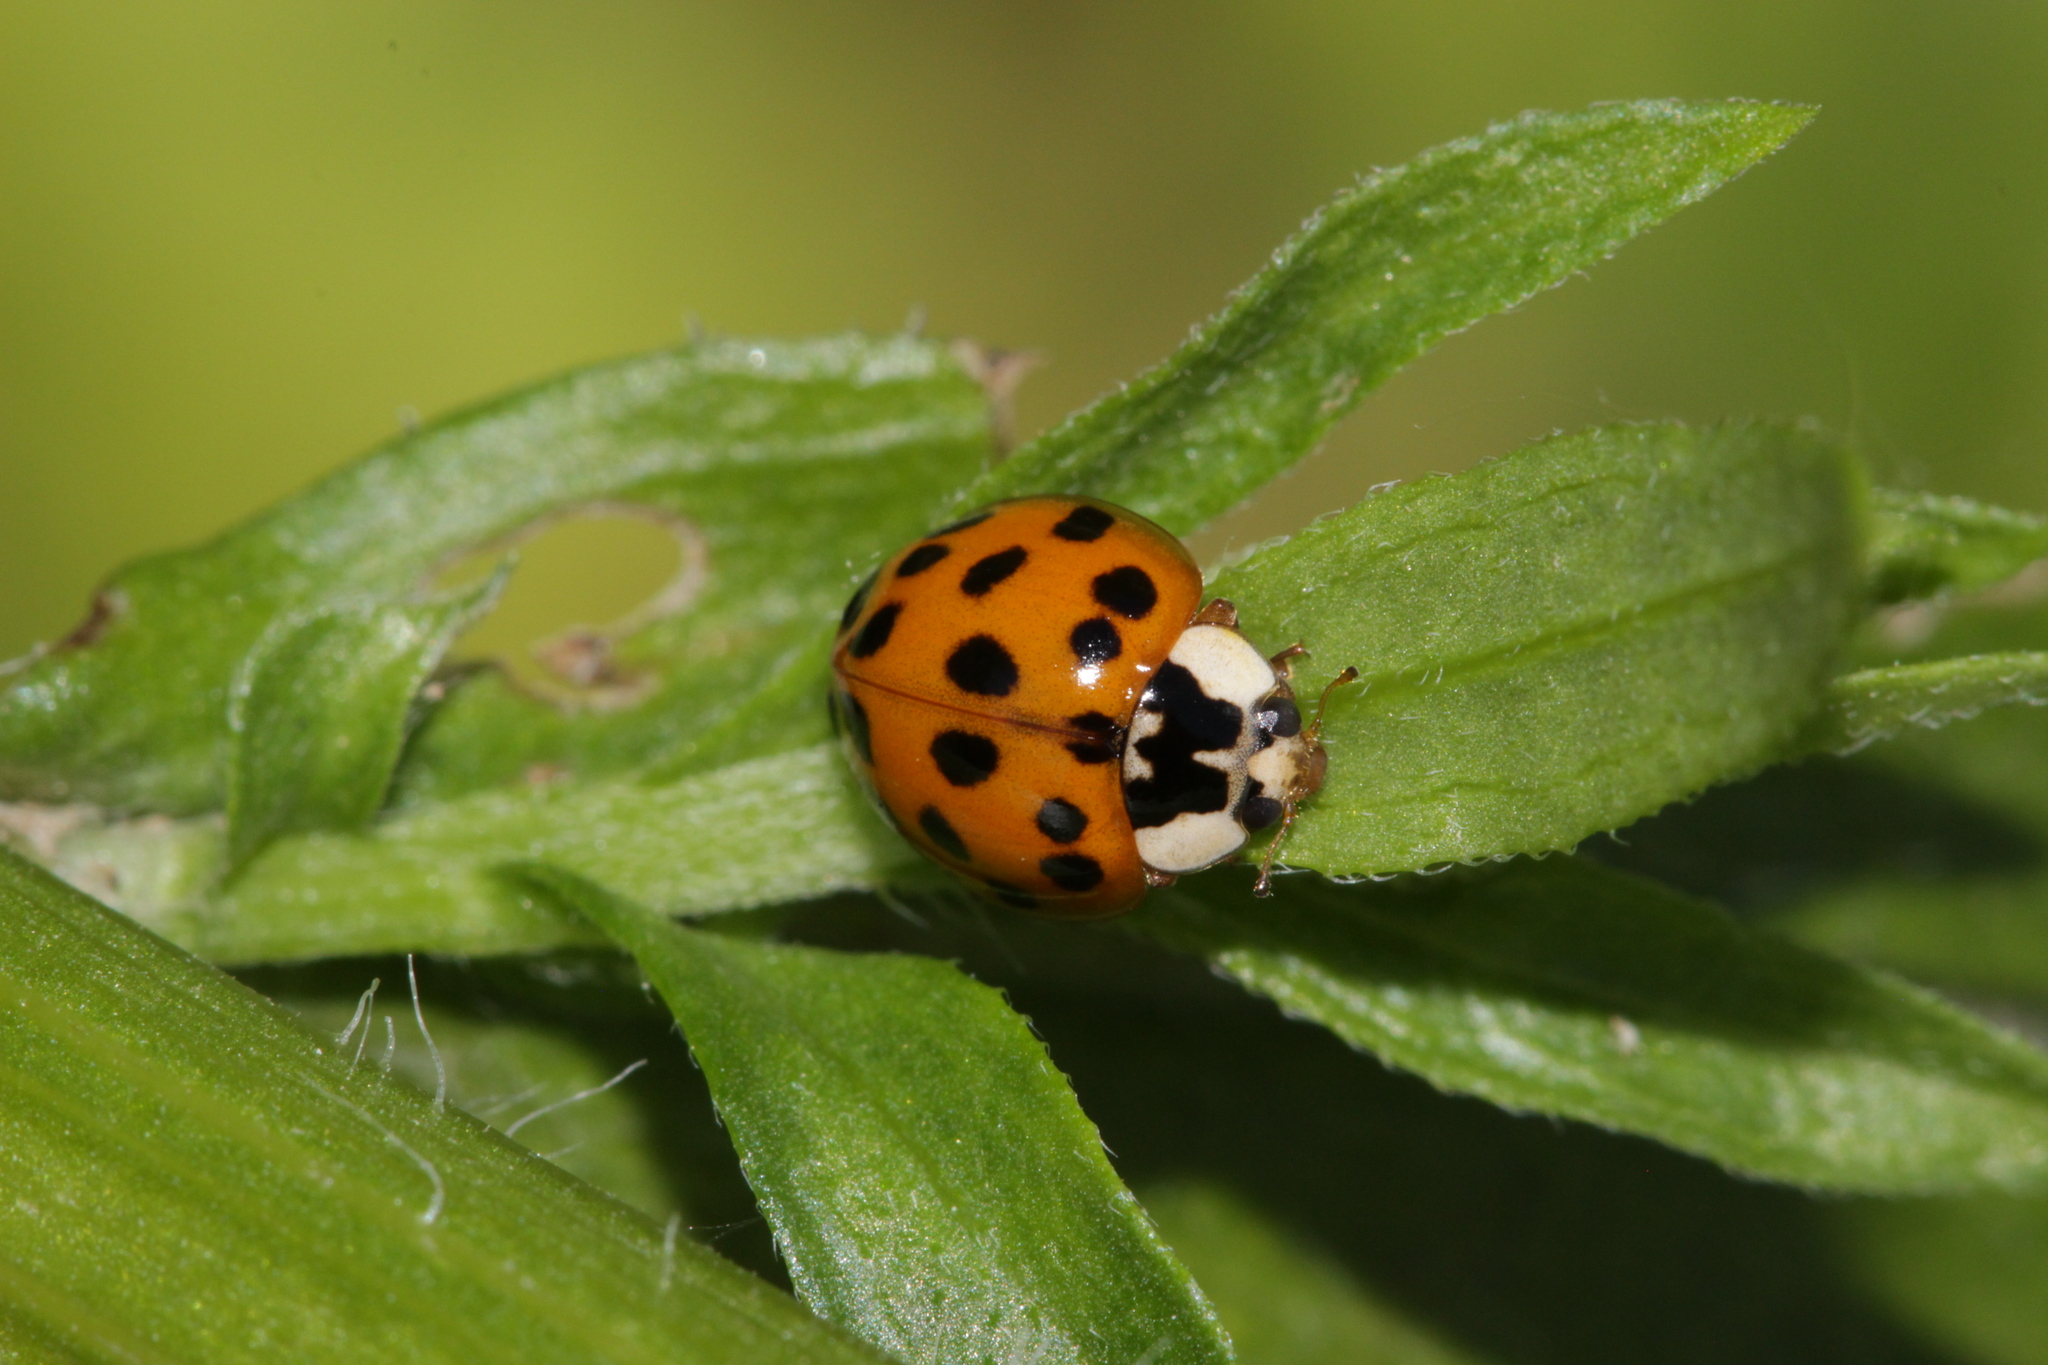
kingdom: Animalia
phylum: Arthropoda
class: Insecta
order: Coleoptera
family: Coccinellidae
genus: Harmonia
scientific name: Harmonia axyridis
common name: Harlequin ladybird
